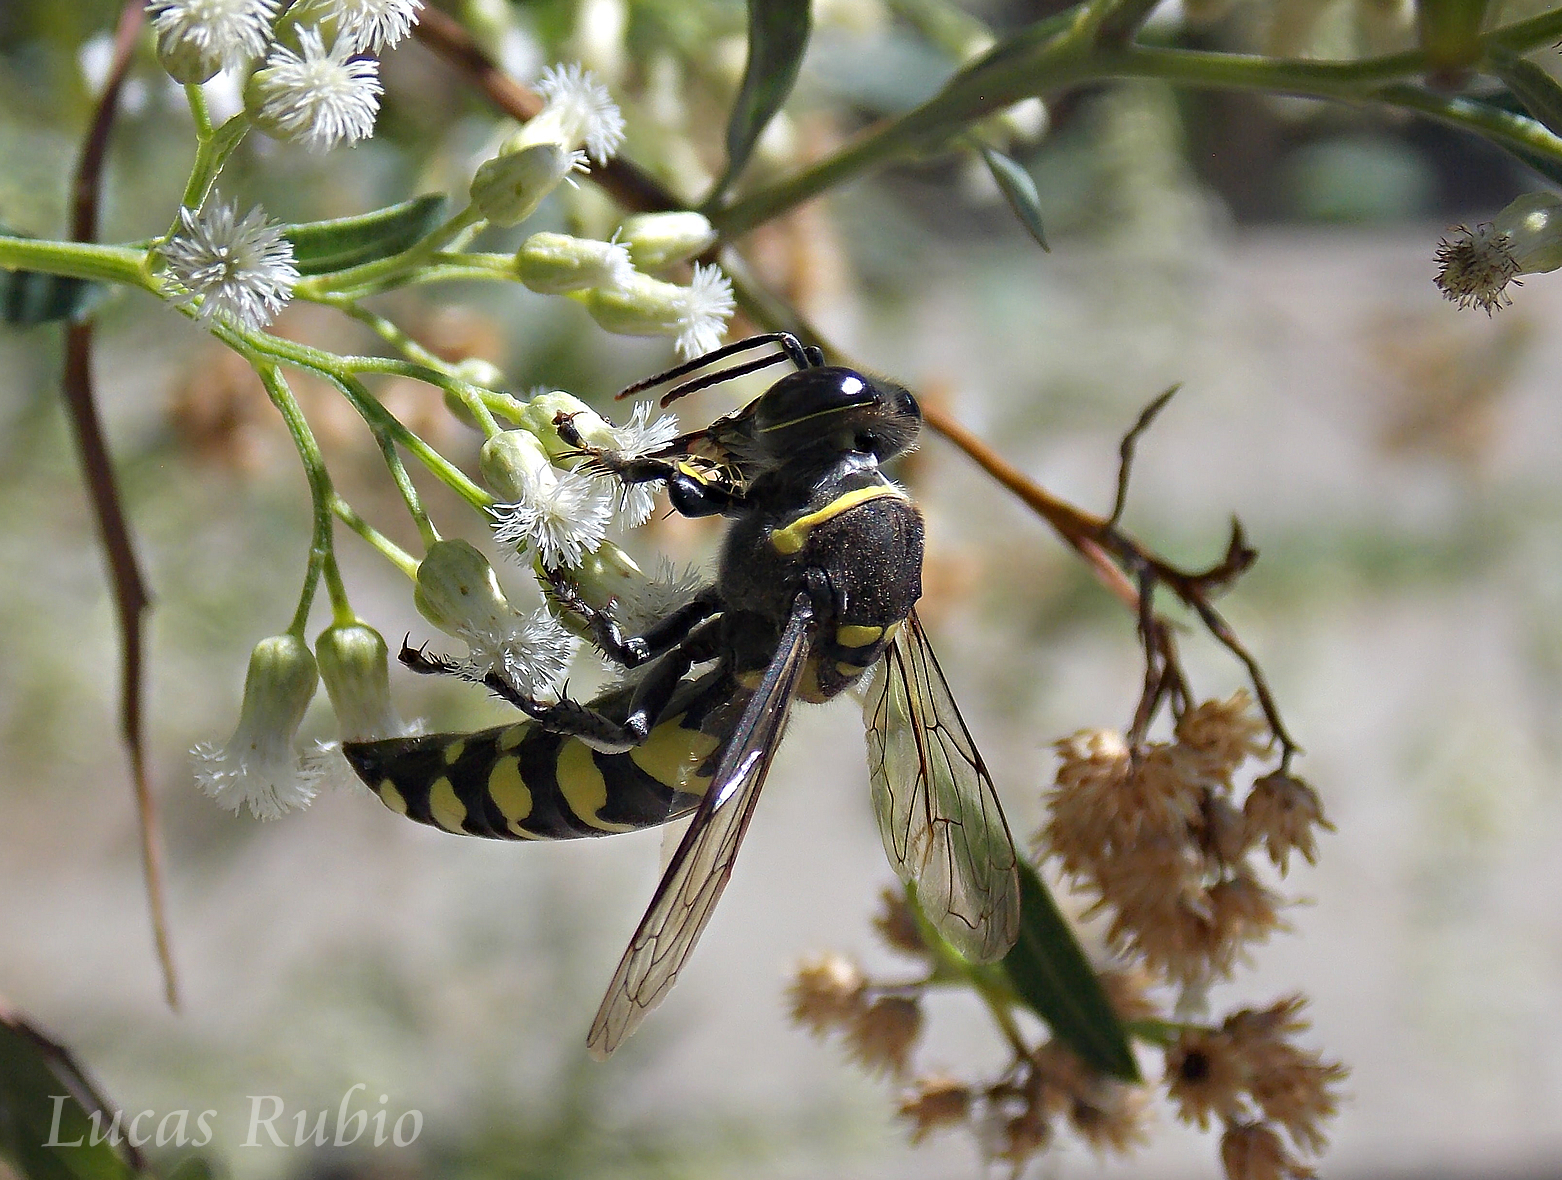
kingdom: Animalia
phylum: Arthropoda
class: Insecta
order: Hymenoptera
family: Crabronidae
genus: Stictia
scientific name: Stictia arcuata
